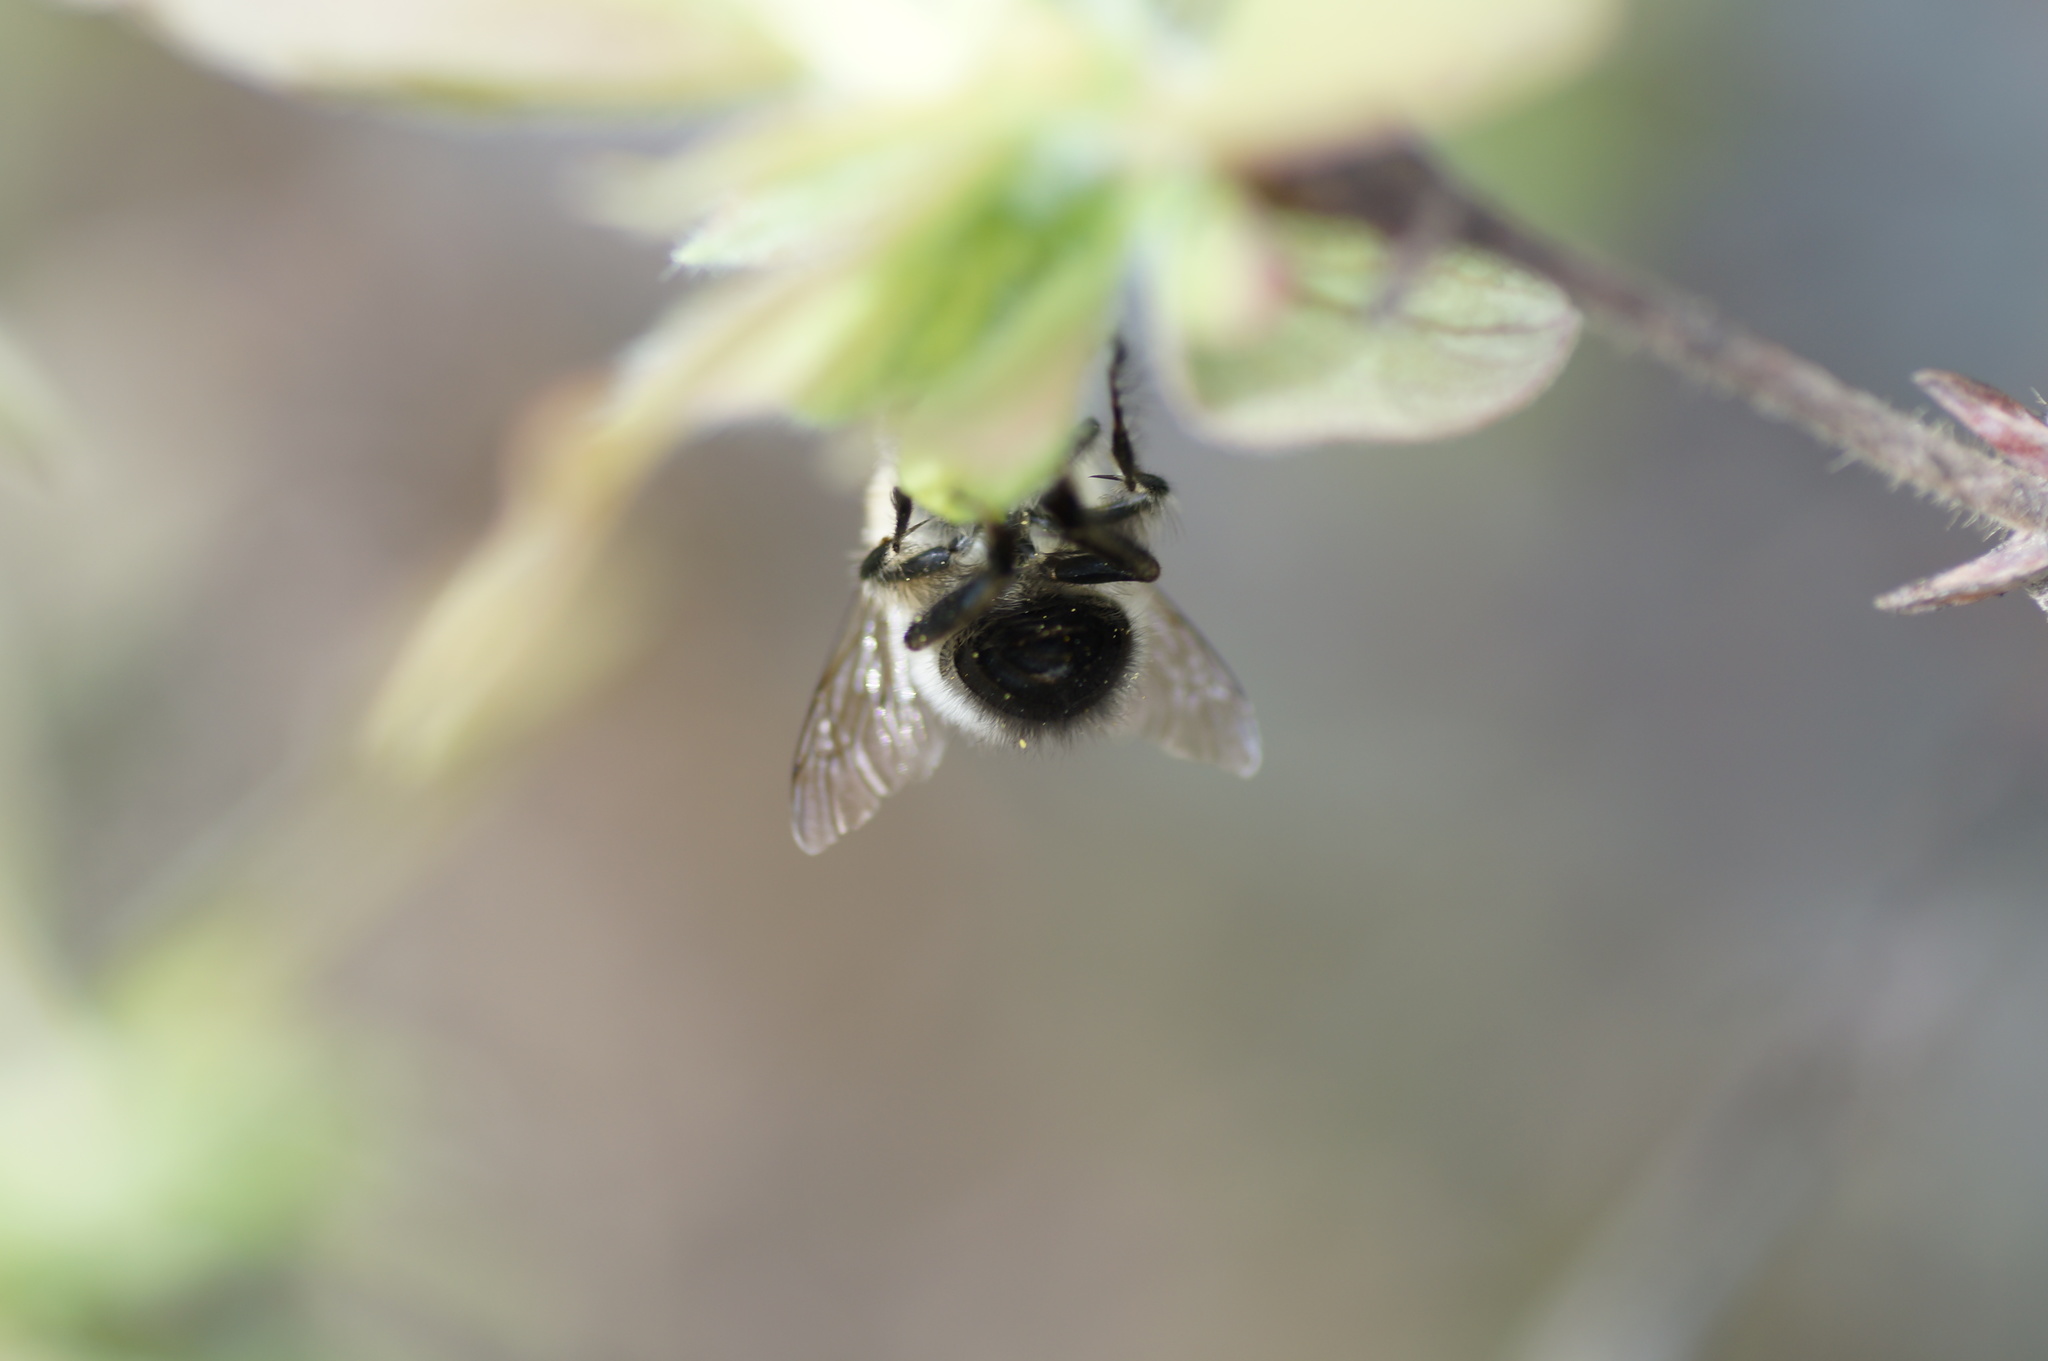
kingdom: Animalia
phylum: Arthropoda
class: Insecta
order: Hymenoptera
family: Apidae
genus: Anthophora
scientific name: Anthophora plumipes
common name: Hairy-footed flower bee
